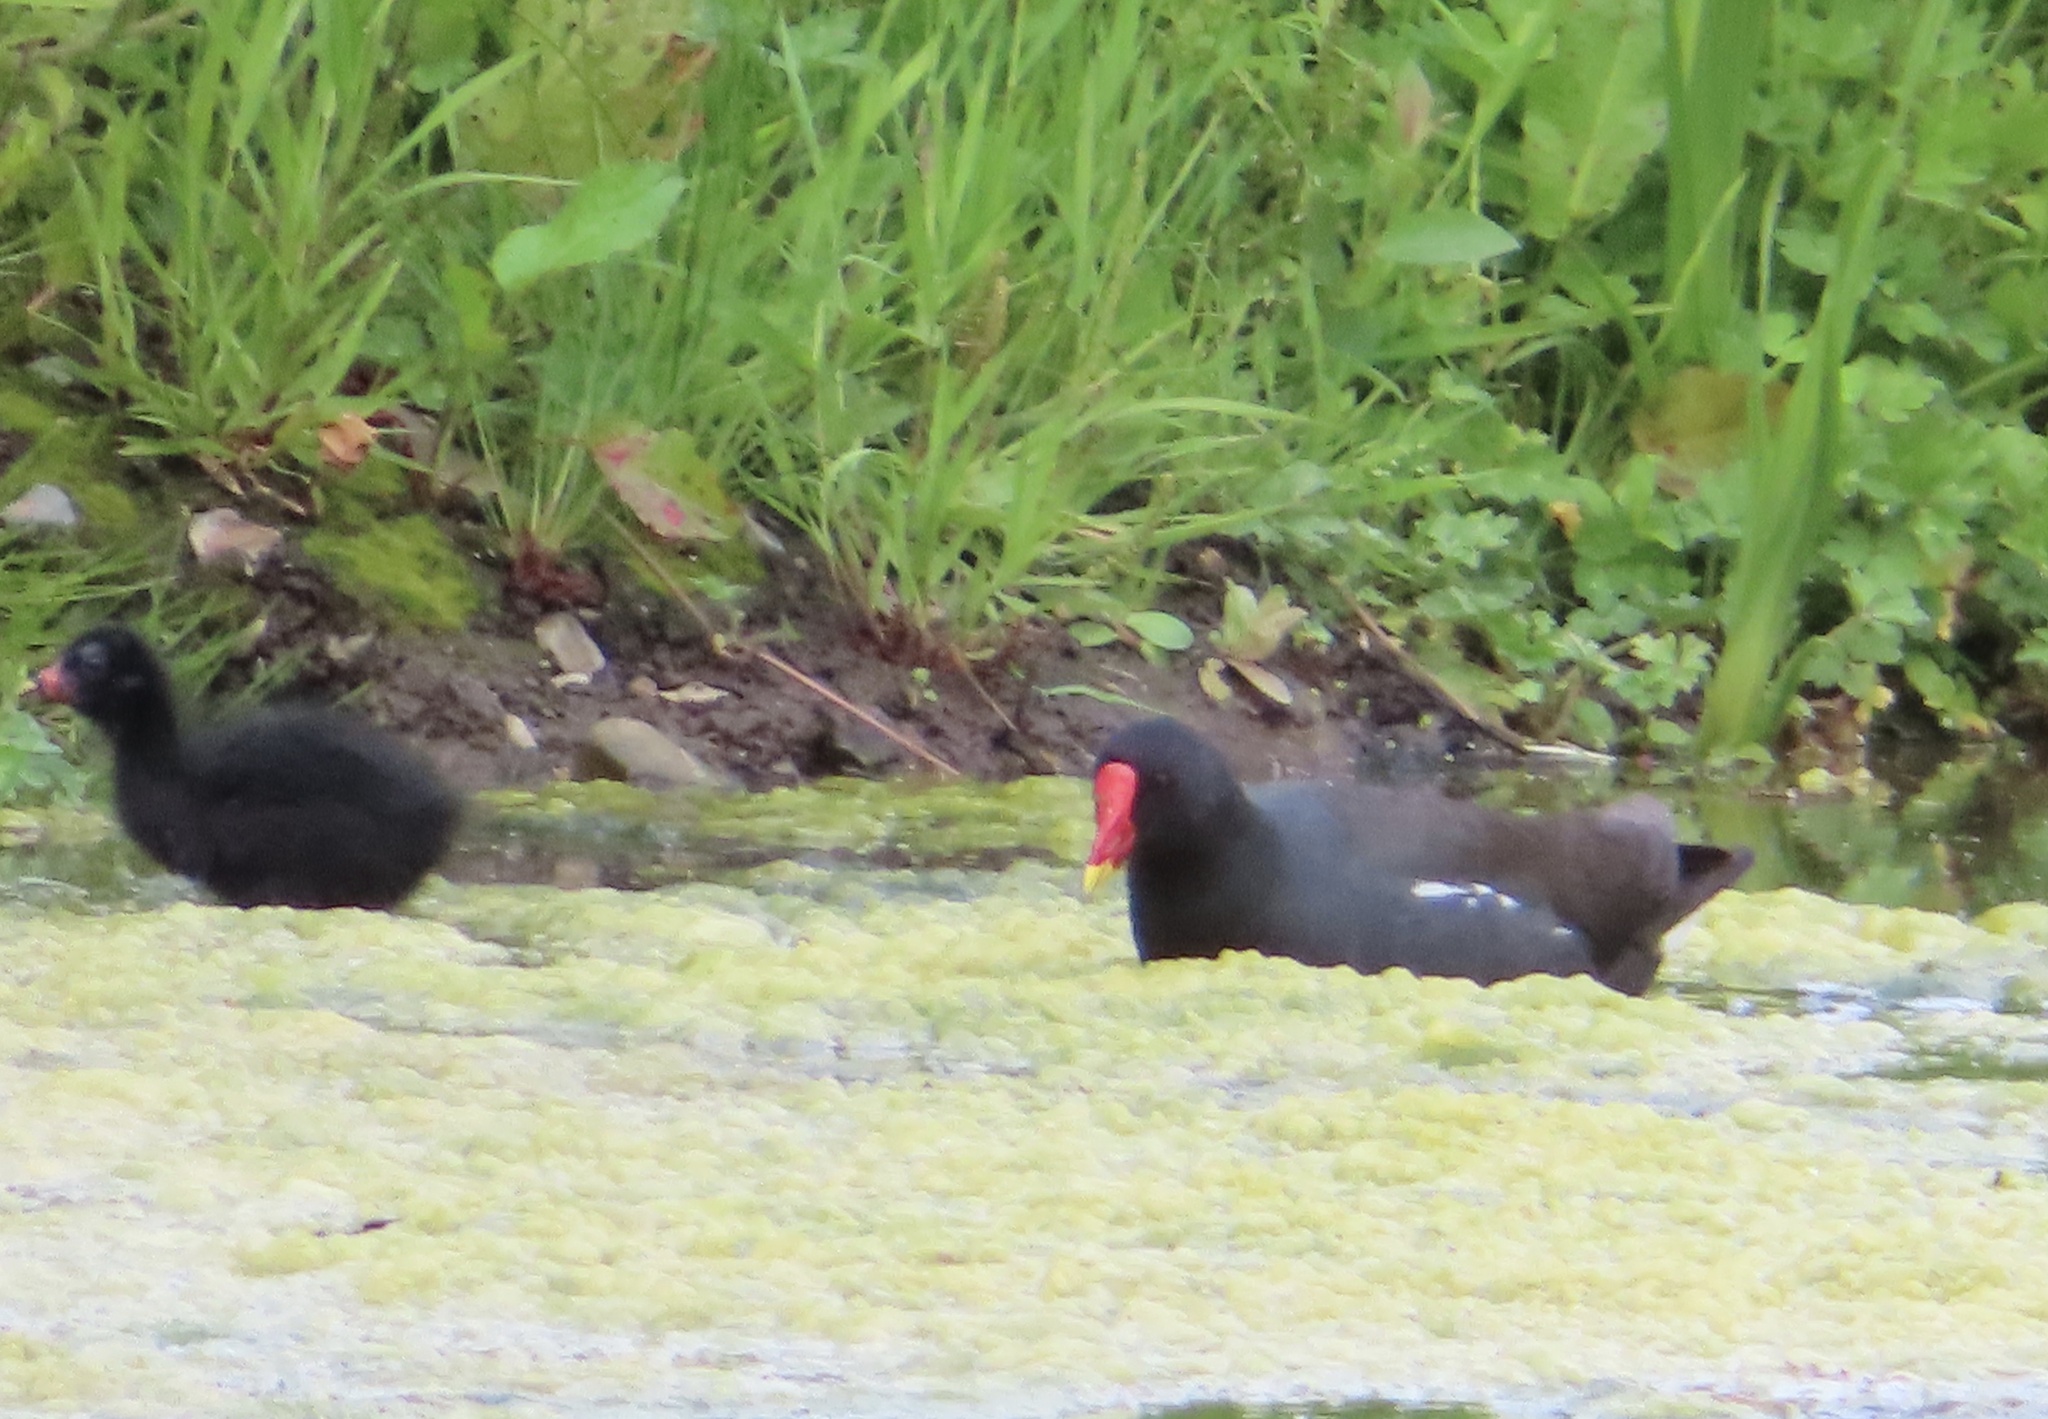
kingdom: Animalia
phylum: Chordata
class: Aves
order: Gruiformes
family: Rallidae
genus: Gallinula
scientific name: Gallinula chloropus
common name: Common moorhen
